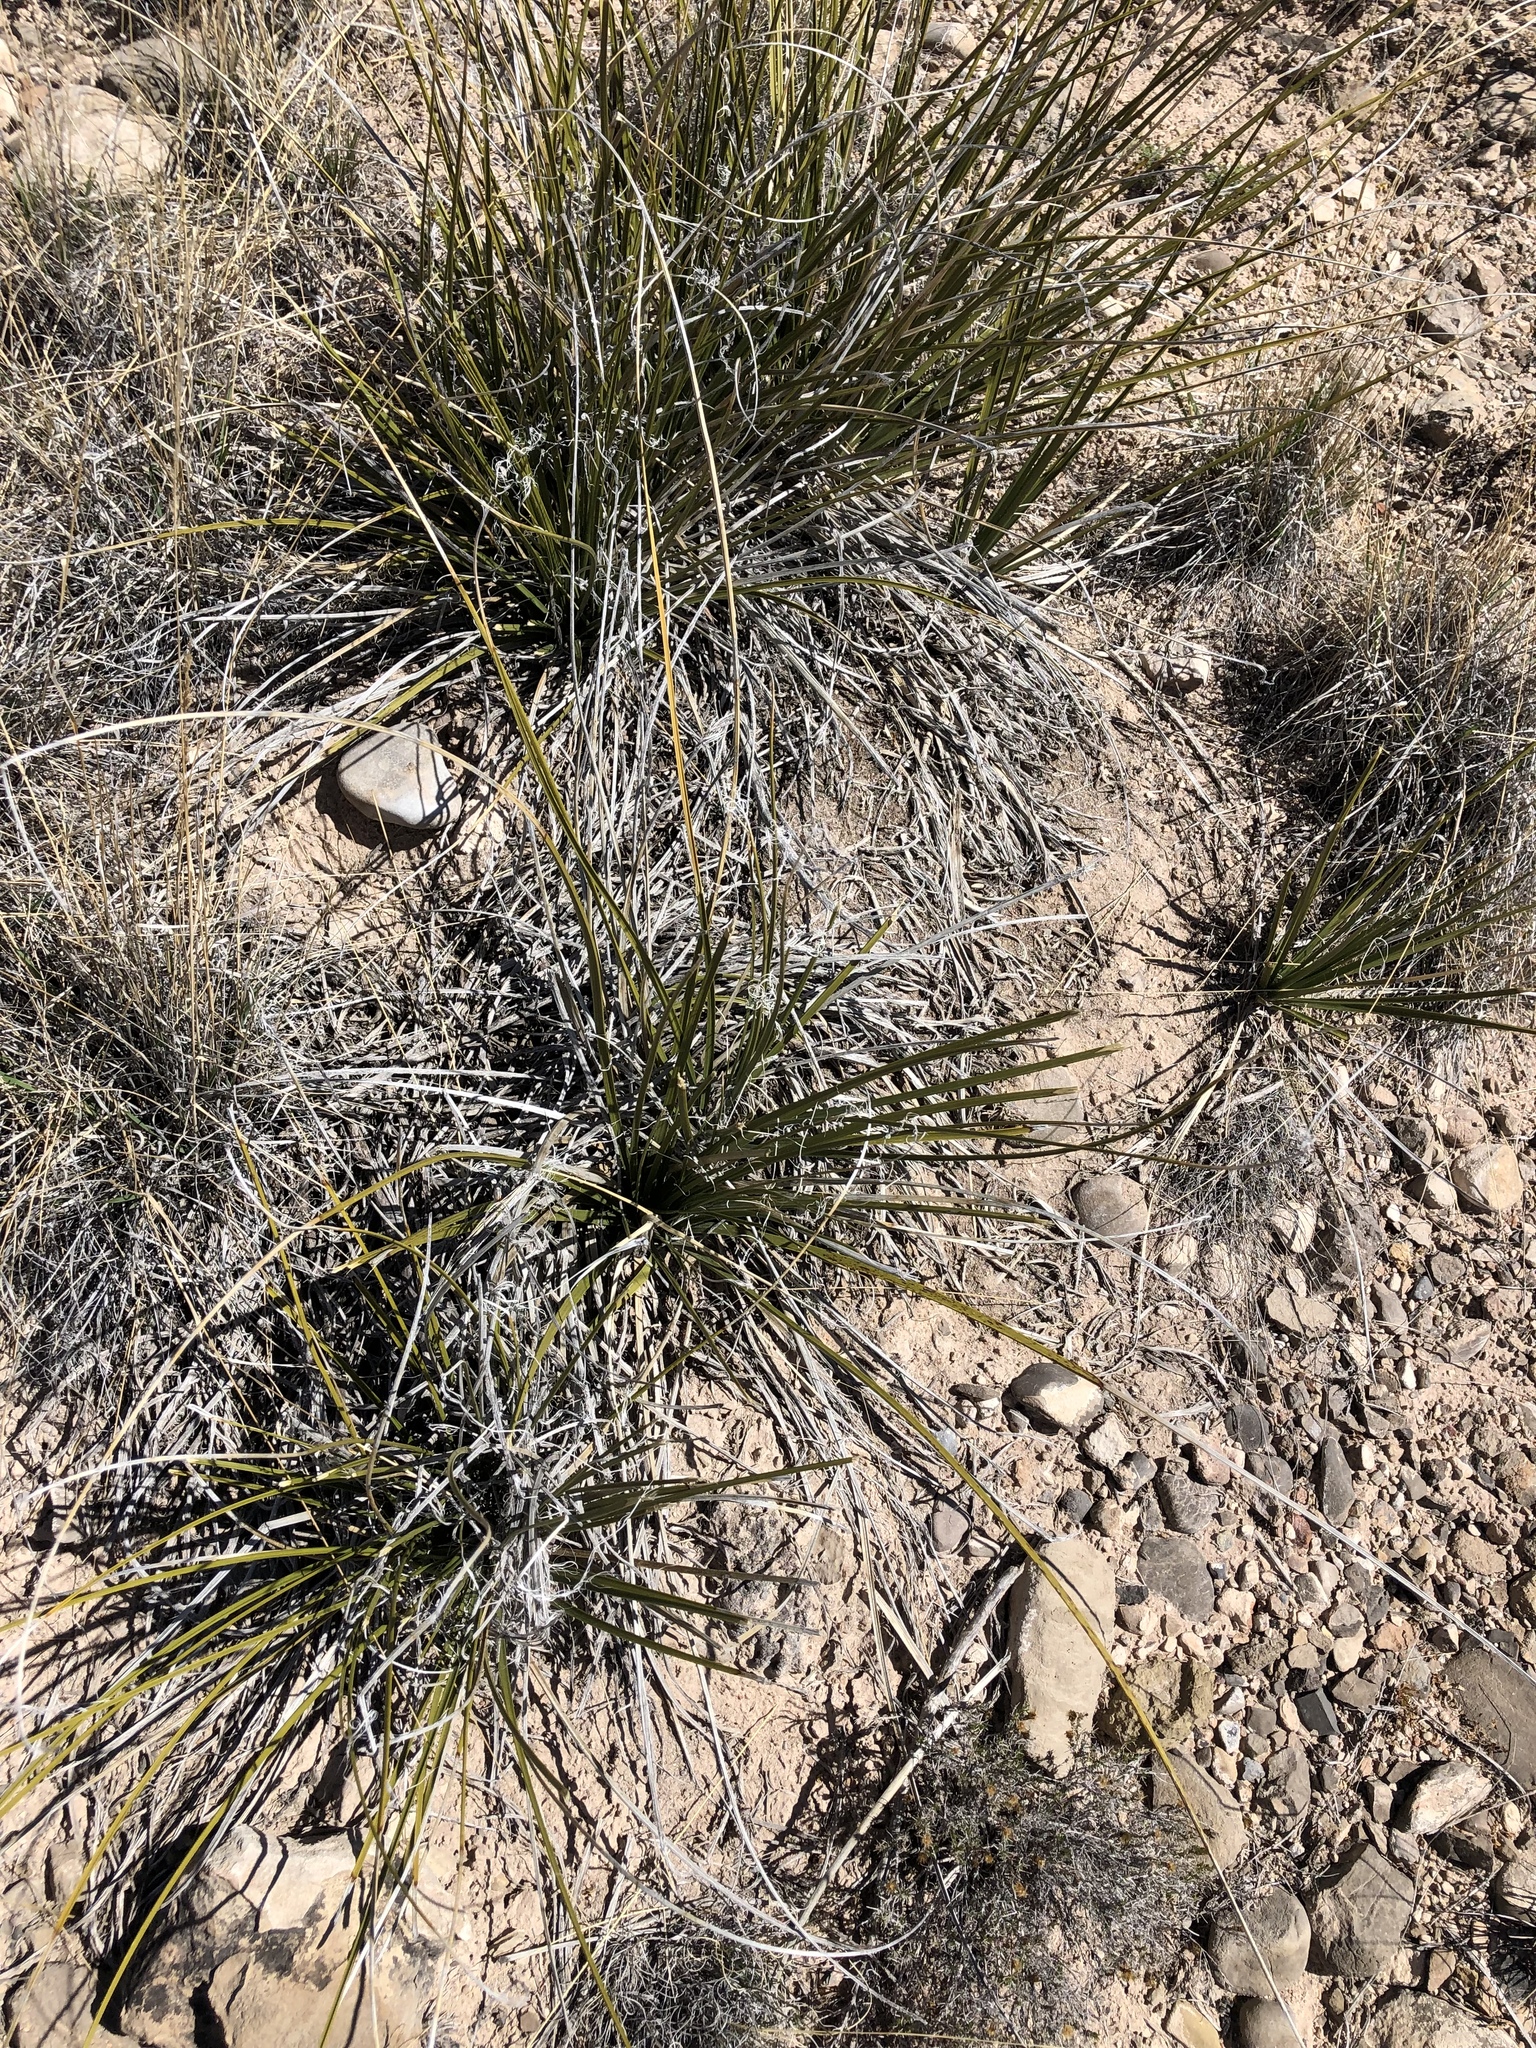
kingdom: Plantae
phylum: Tracheophyta
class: Liliopsida
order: Asparagales
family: Asparagaceae
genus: Nolina
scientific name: Nolina microcarpa
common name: Bear-grass
